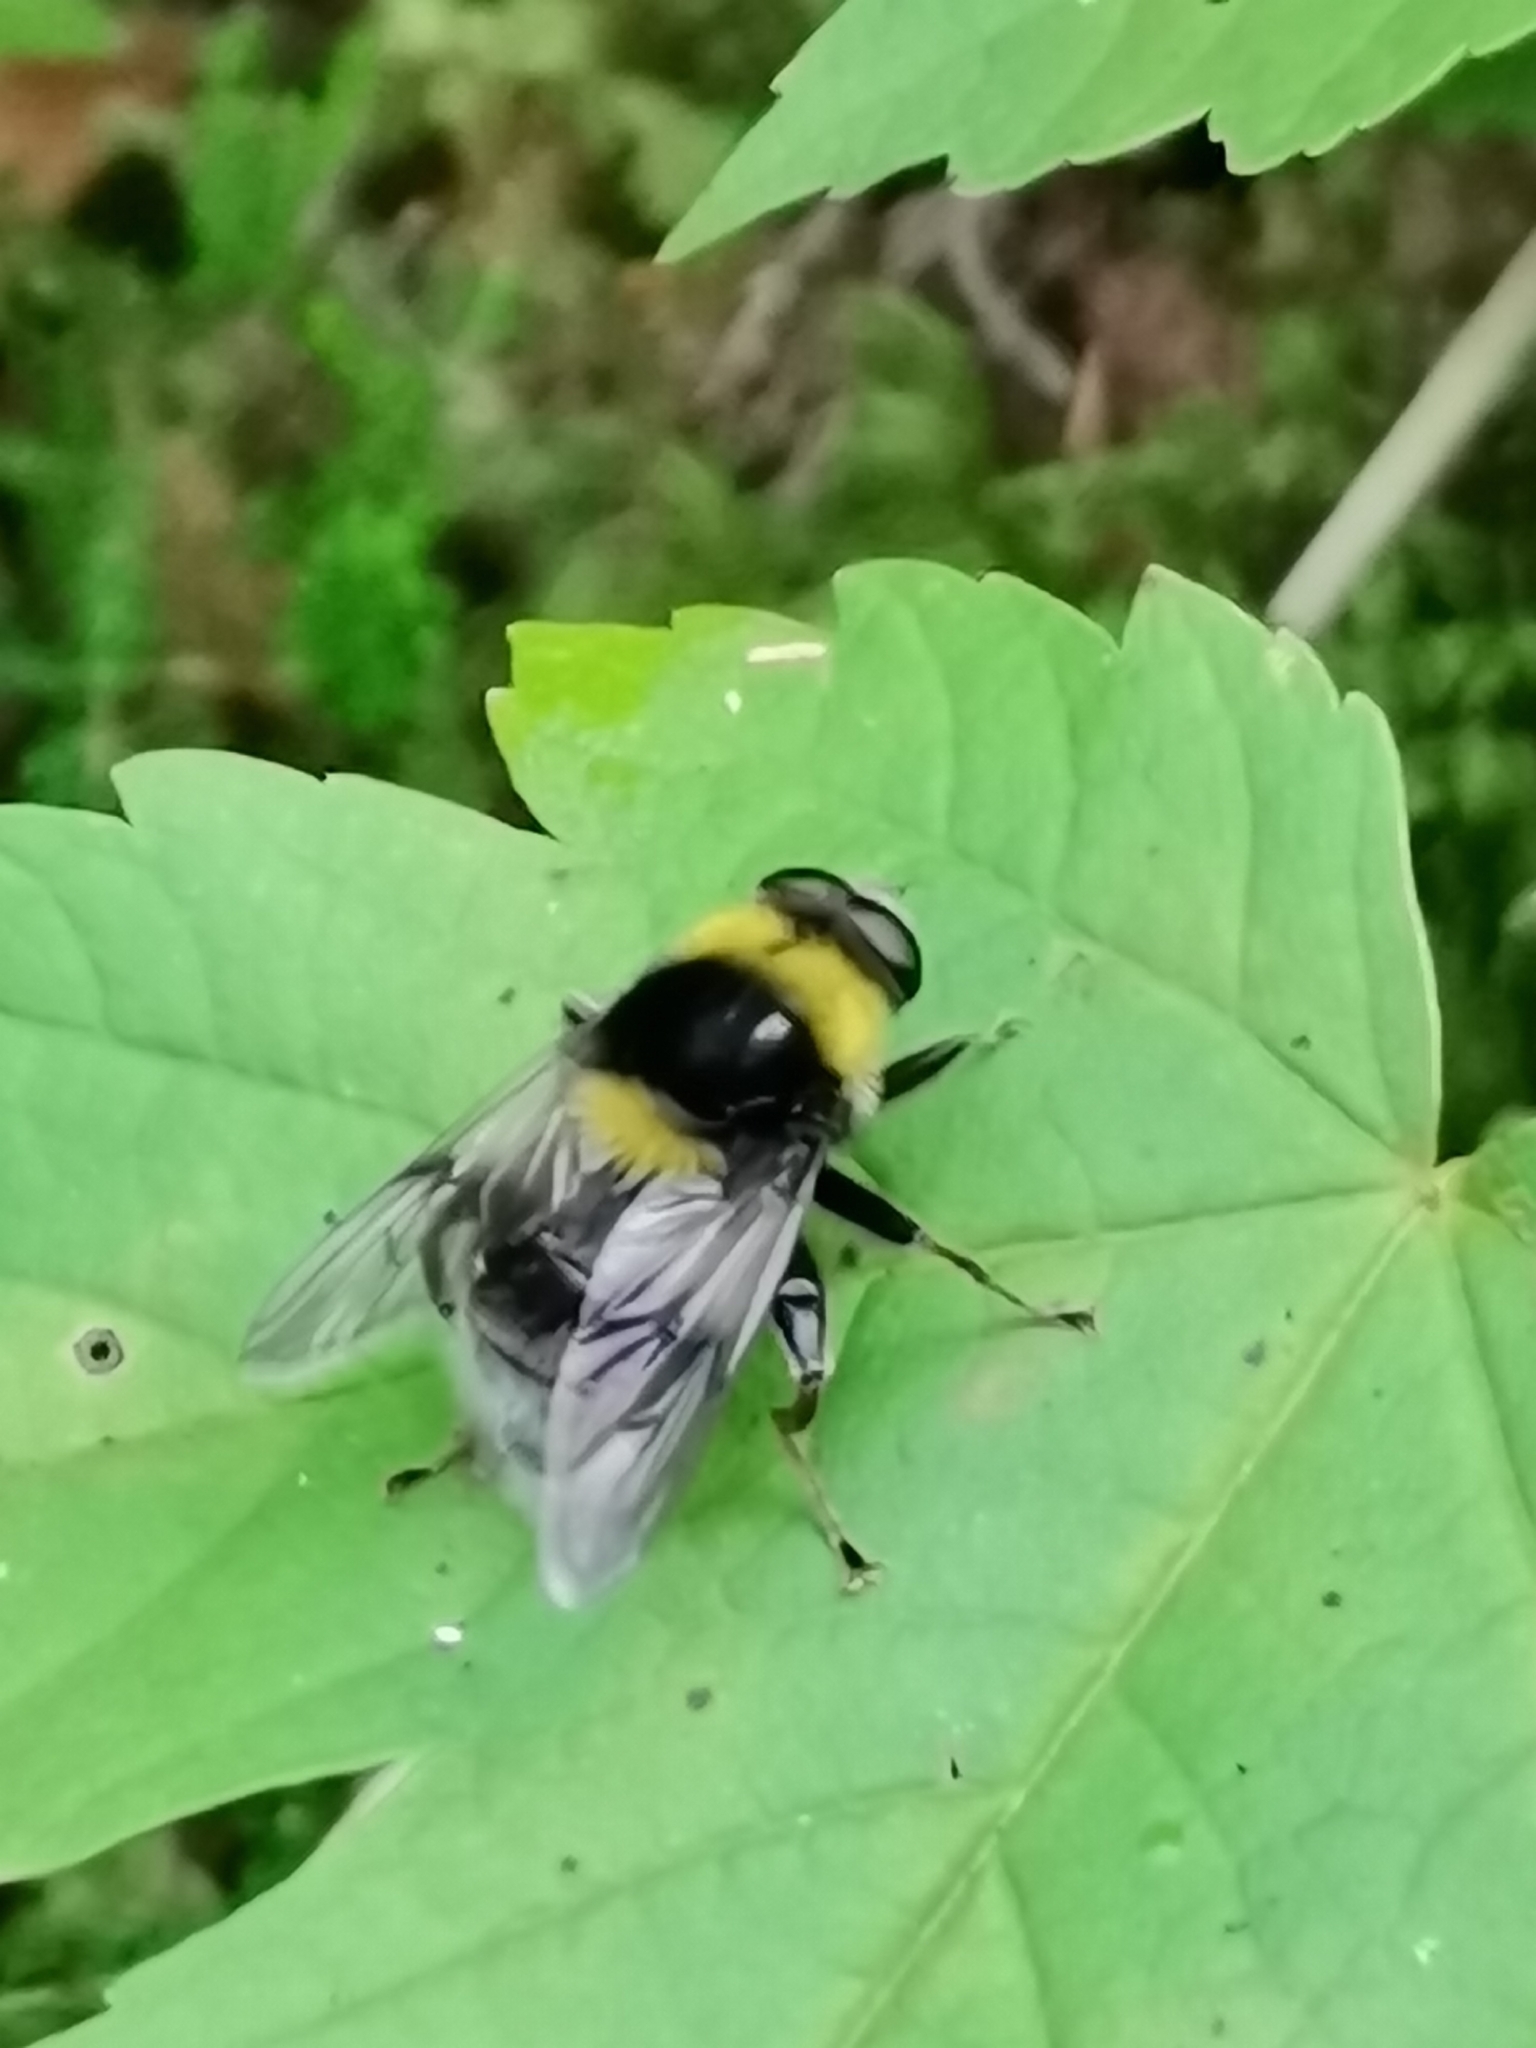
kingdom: Animalia
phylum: Arthropoda
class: Insecta
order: Diptera
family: Syrphidae
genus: Sericomyia
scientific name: Sericomyia bombiformis
